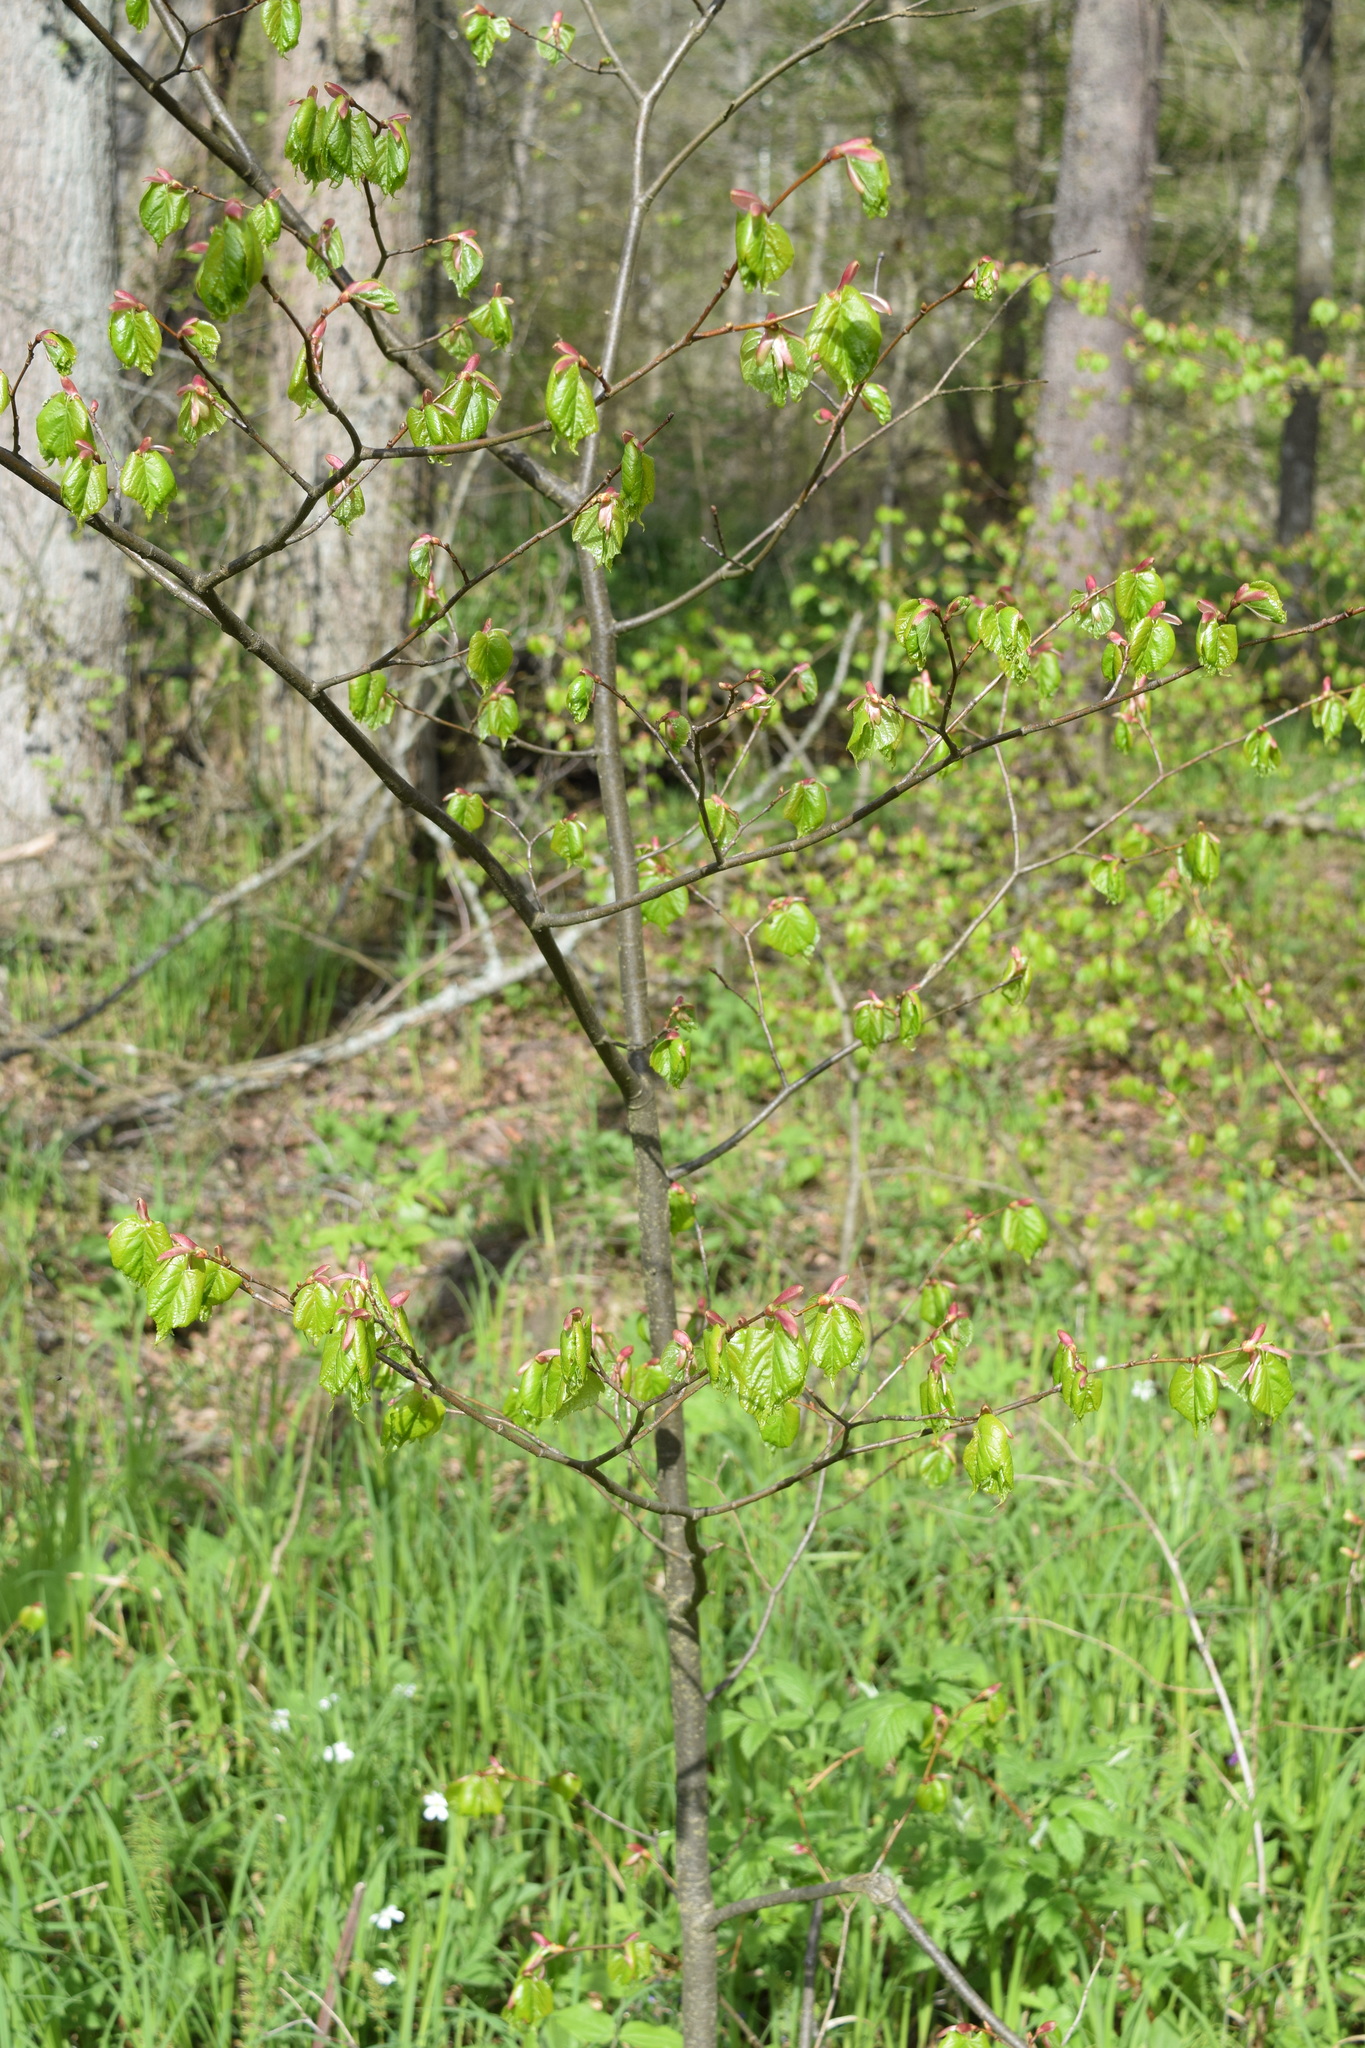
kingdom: Plantae
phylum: Tracheophyta
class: Magnoliopsida
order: Malvales
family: Malvaceae
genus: Tilia
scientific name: Tilia cordata
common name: Small-leaved lime
